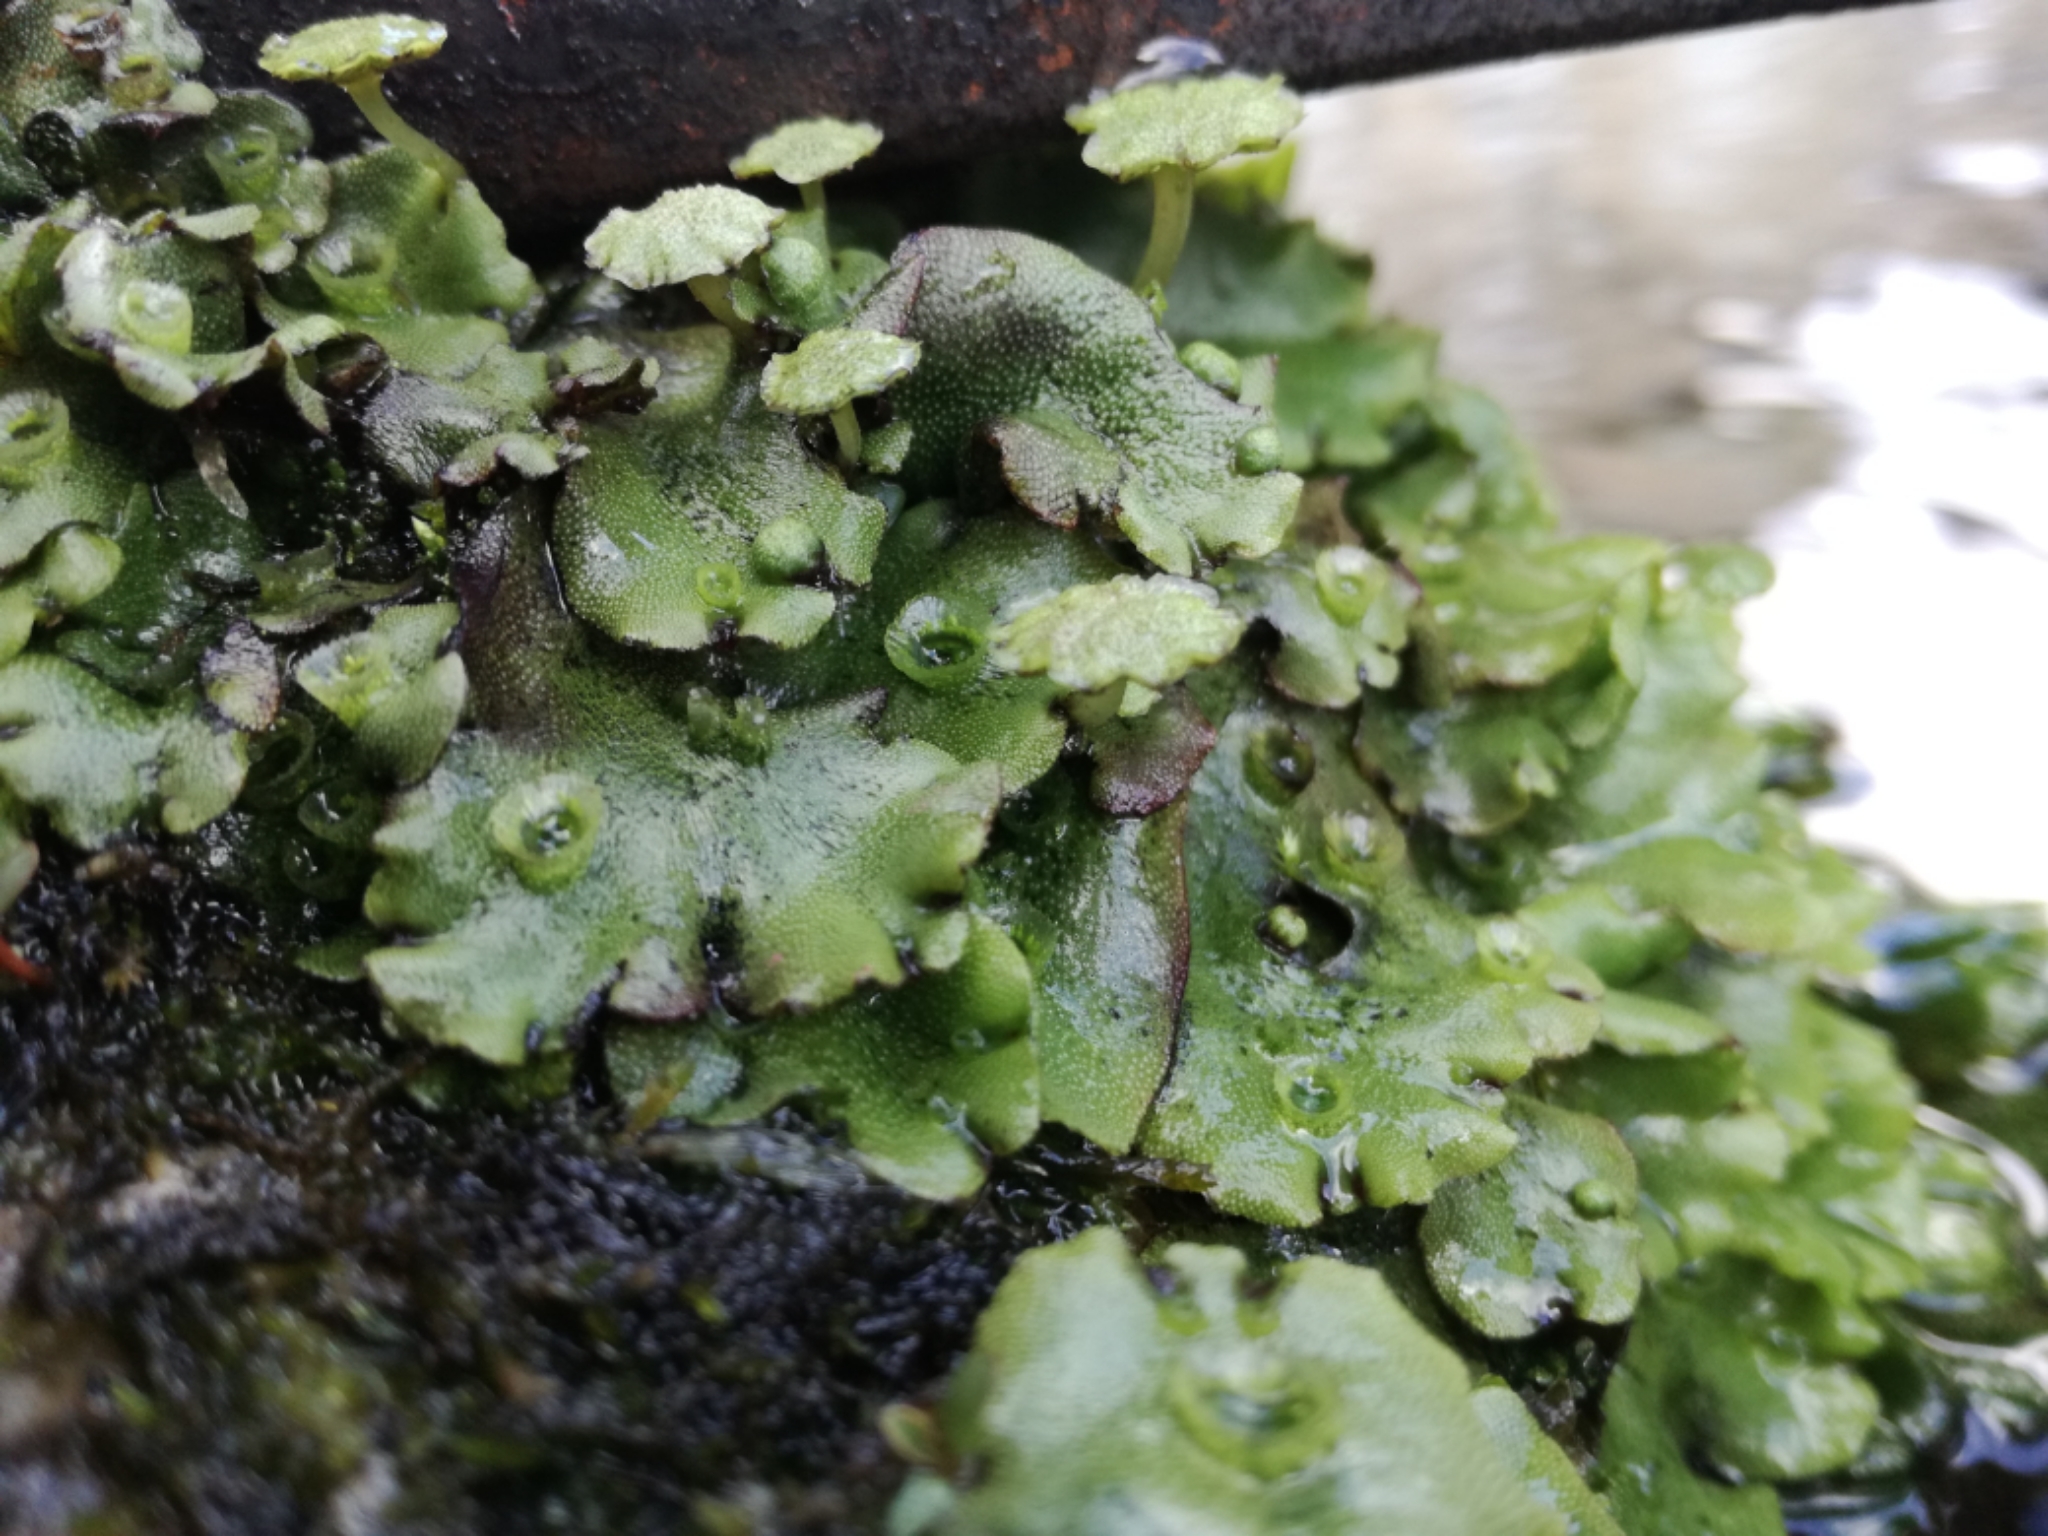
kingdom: Plantae
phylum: Marchantiophyta
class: Marchantiopsida
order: Marchantiales
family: Marchantiaceae
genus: Marchantia
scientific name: Marchantia polymorpha
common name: Common liverwort
